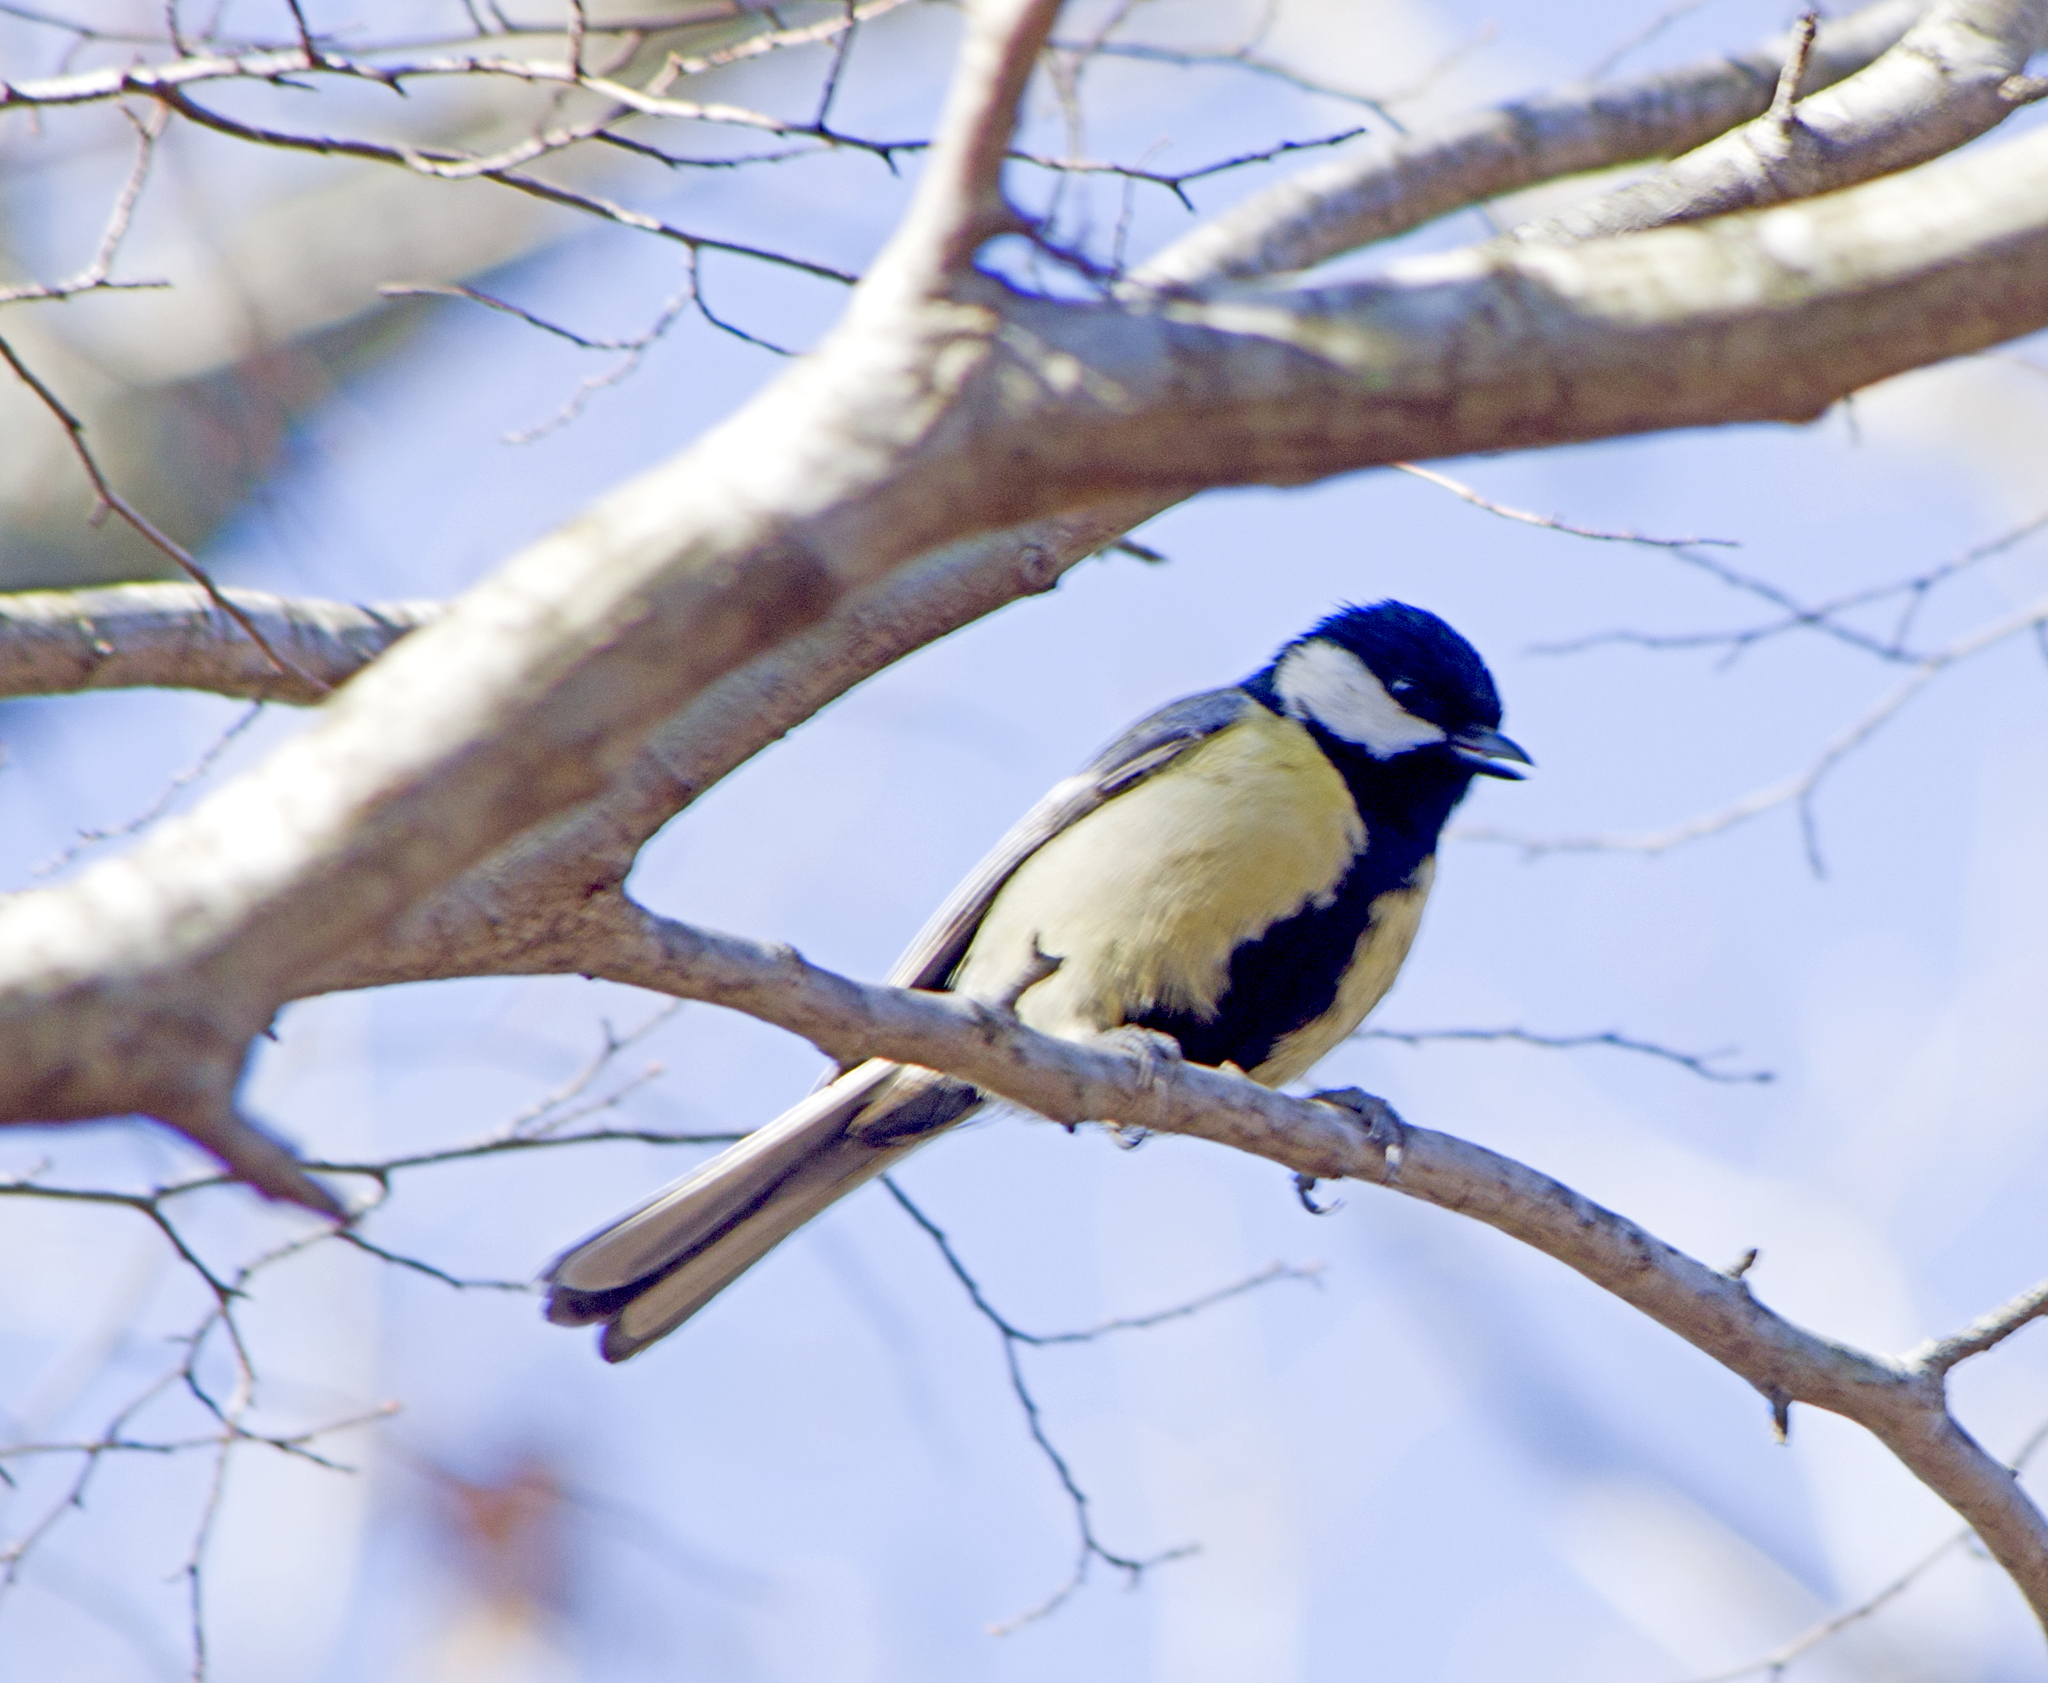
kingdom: Animalia
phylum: Chordata
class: Aves
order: Passeriformes
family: Paridae
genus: Parus
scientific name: Parus major
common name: Great tit
